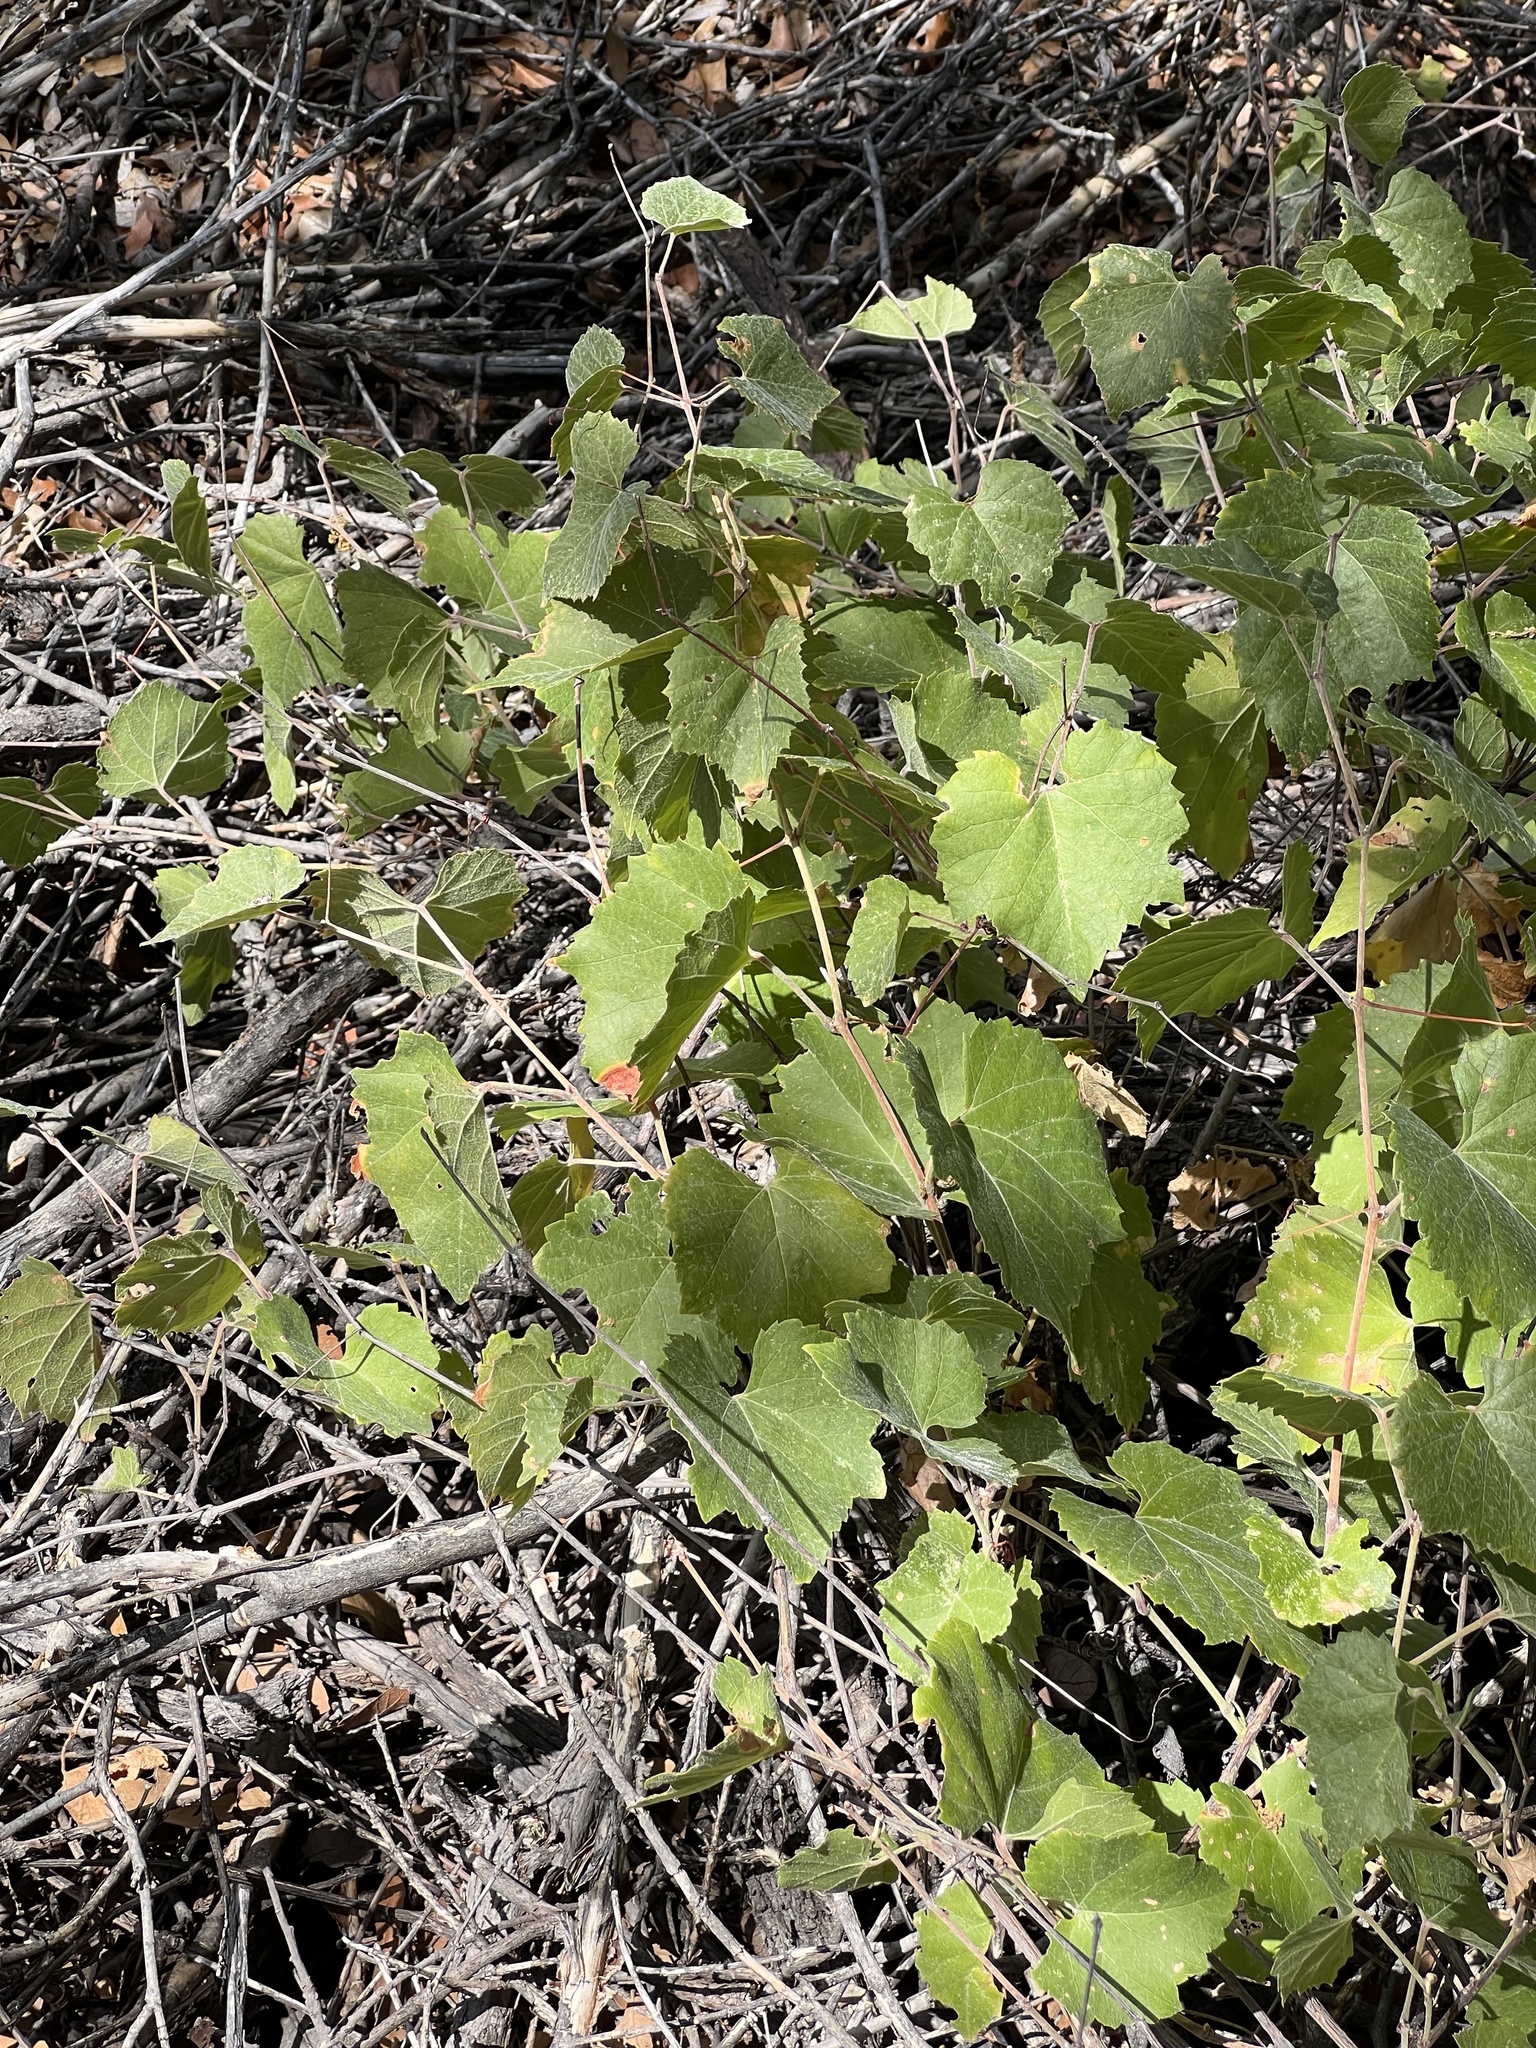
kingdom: Plantae
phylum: Tracheophyta
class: Magnoliopsida
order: Vitales
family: Vitaceae
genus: Vitis
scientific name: Vitis arizonica
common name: Canyon grape
